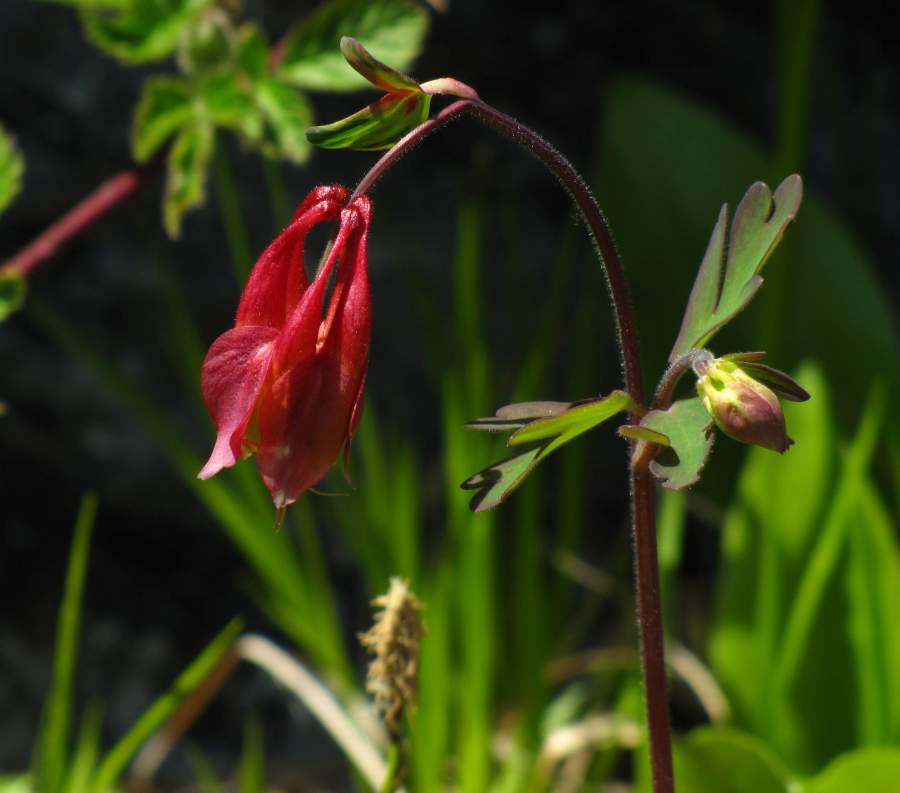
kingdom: Plantae
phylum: Tracheophyta
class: Magnoliopsida
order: Ranunculales
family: Ranunculaceae
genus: Aquilegia
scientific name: Aquilegia canadensis
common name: American columbine
